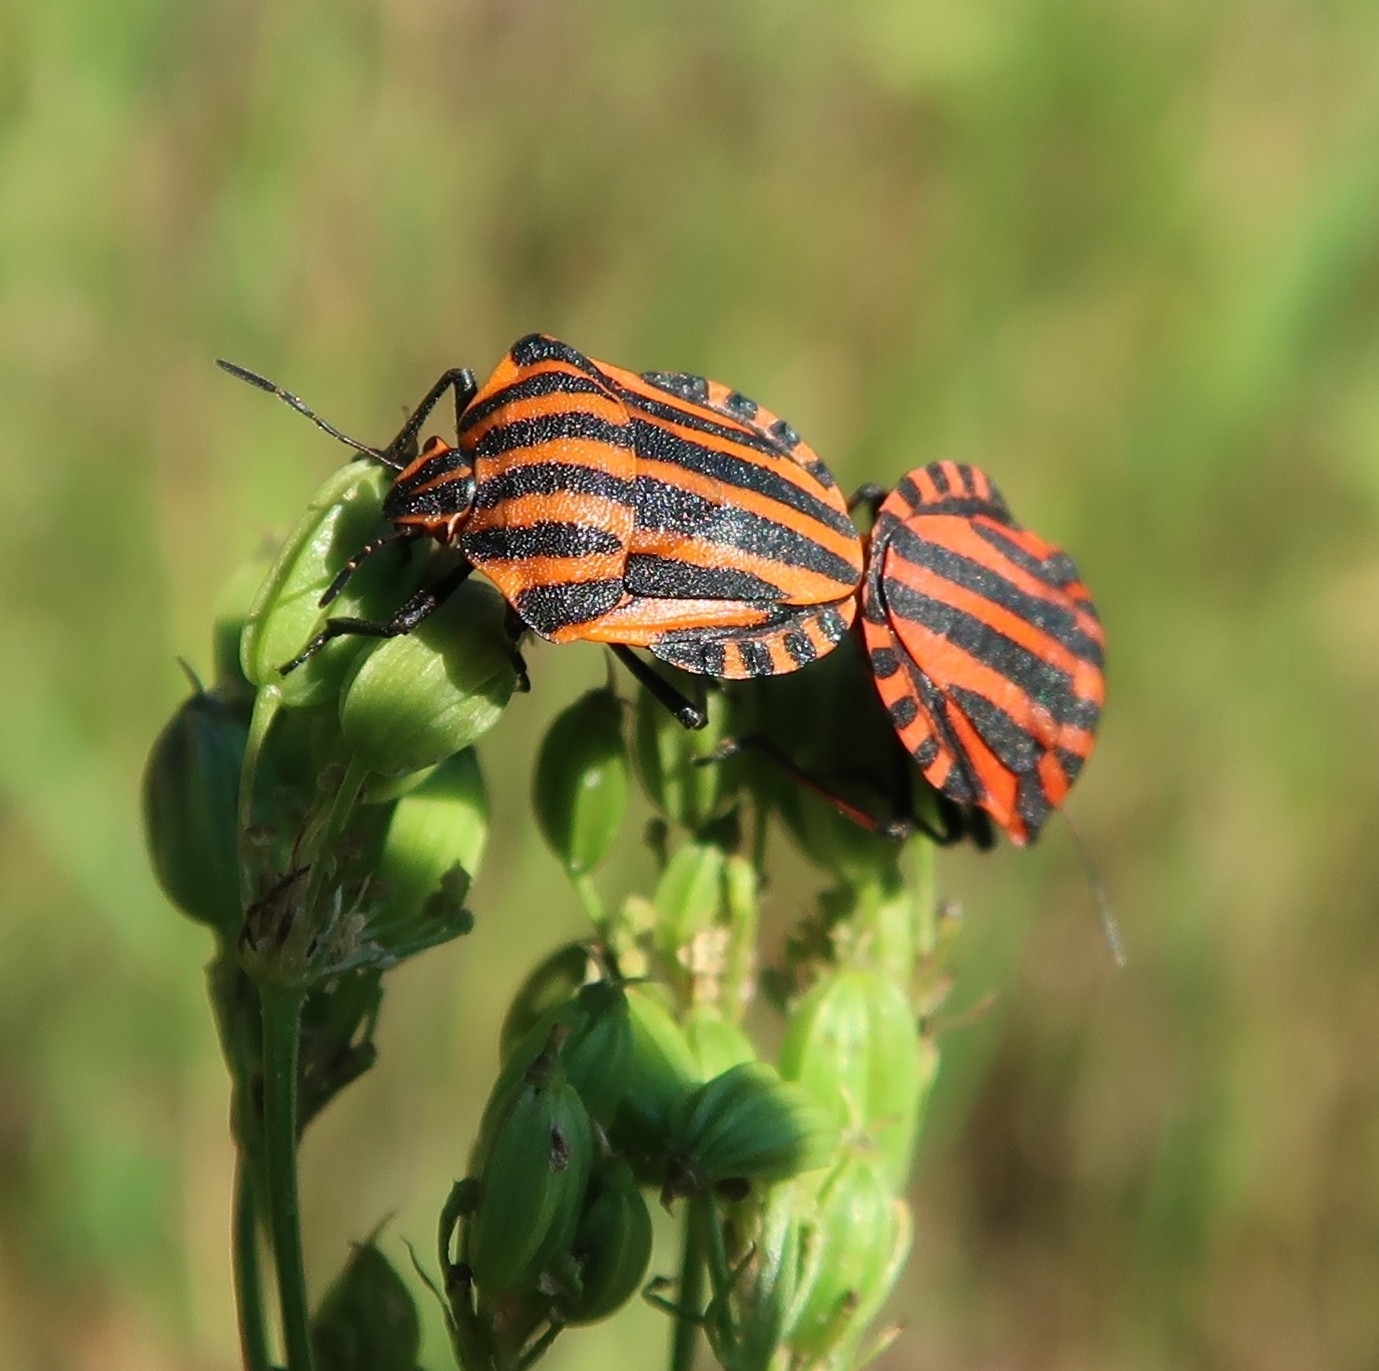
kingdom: Animalia
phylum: Arthropoda
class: Insecta
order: Hemiptera
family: Pentatomidae
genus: Graphosoma
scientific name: Graphosoma italicum
